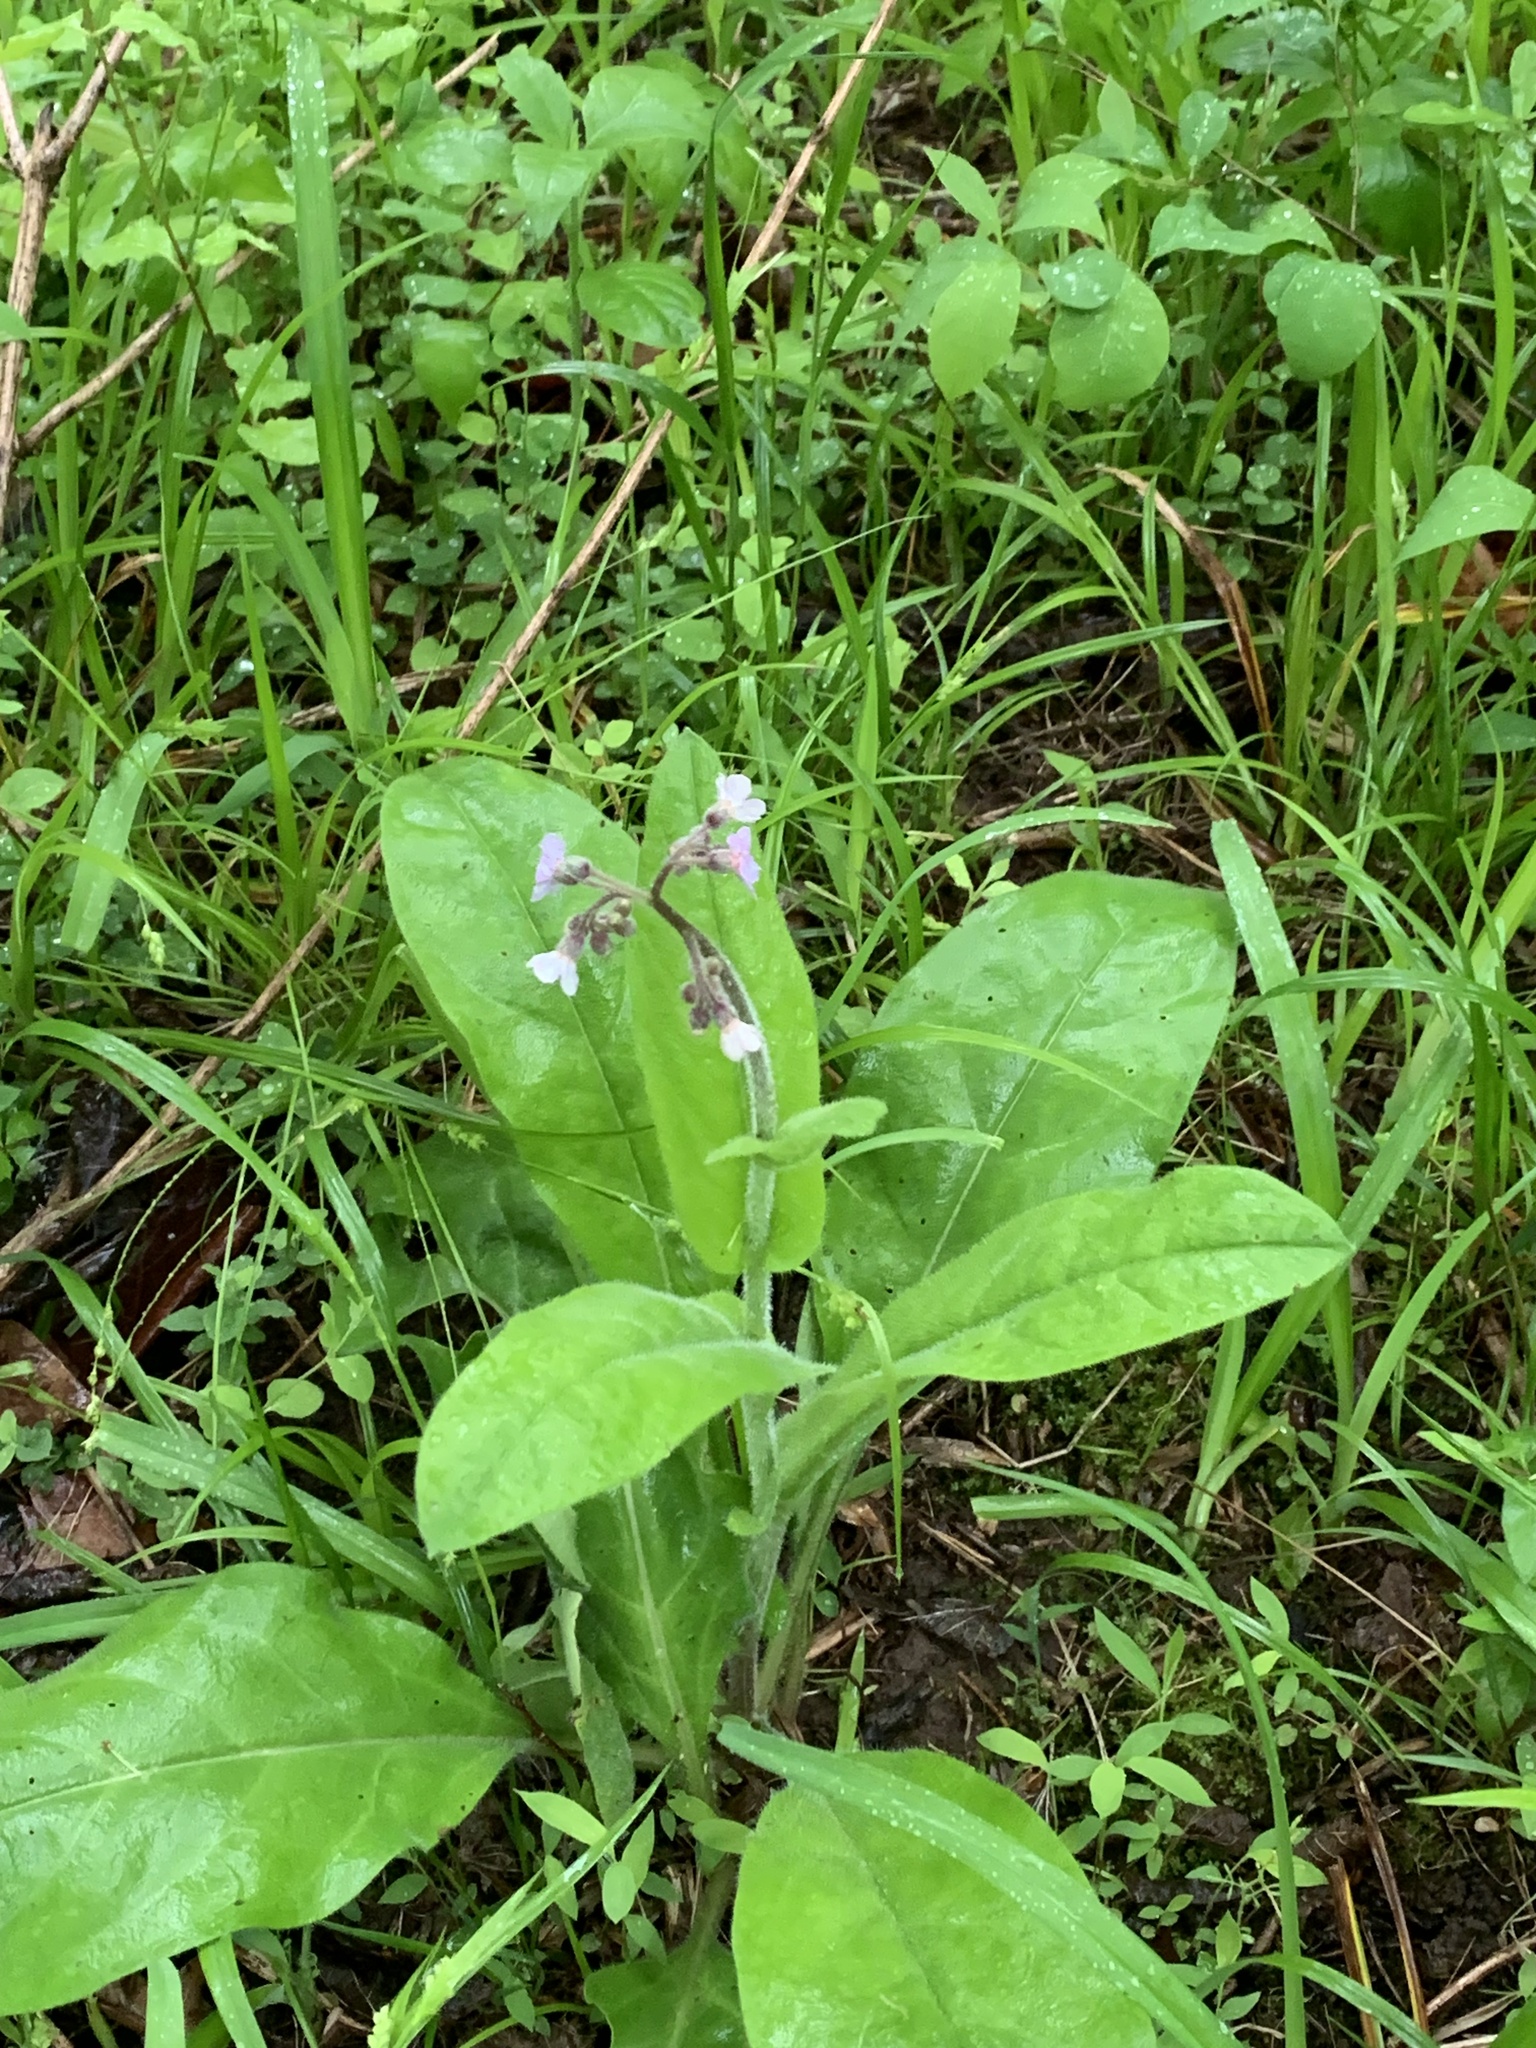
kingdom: Plantae
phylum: Tracheophyta
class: Magnoliopsida
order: Boraginales
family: Boraginaceae
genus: Andersonglossum
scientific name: Andersonglossum virginianum
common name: Wild comfrey
